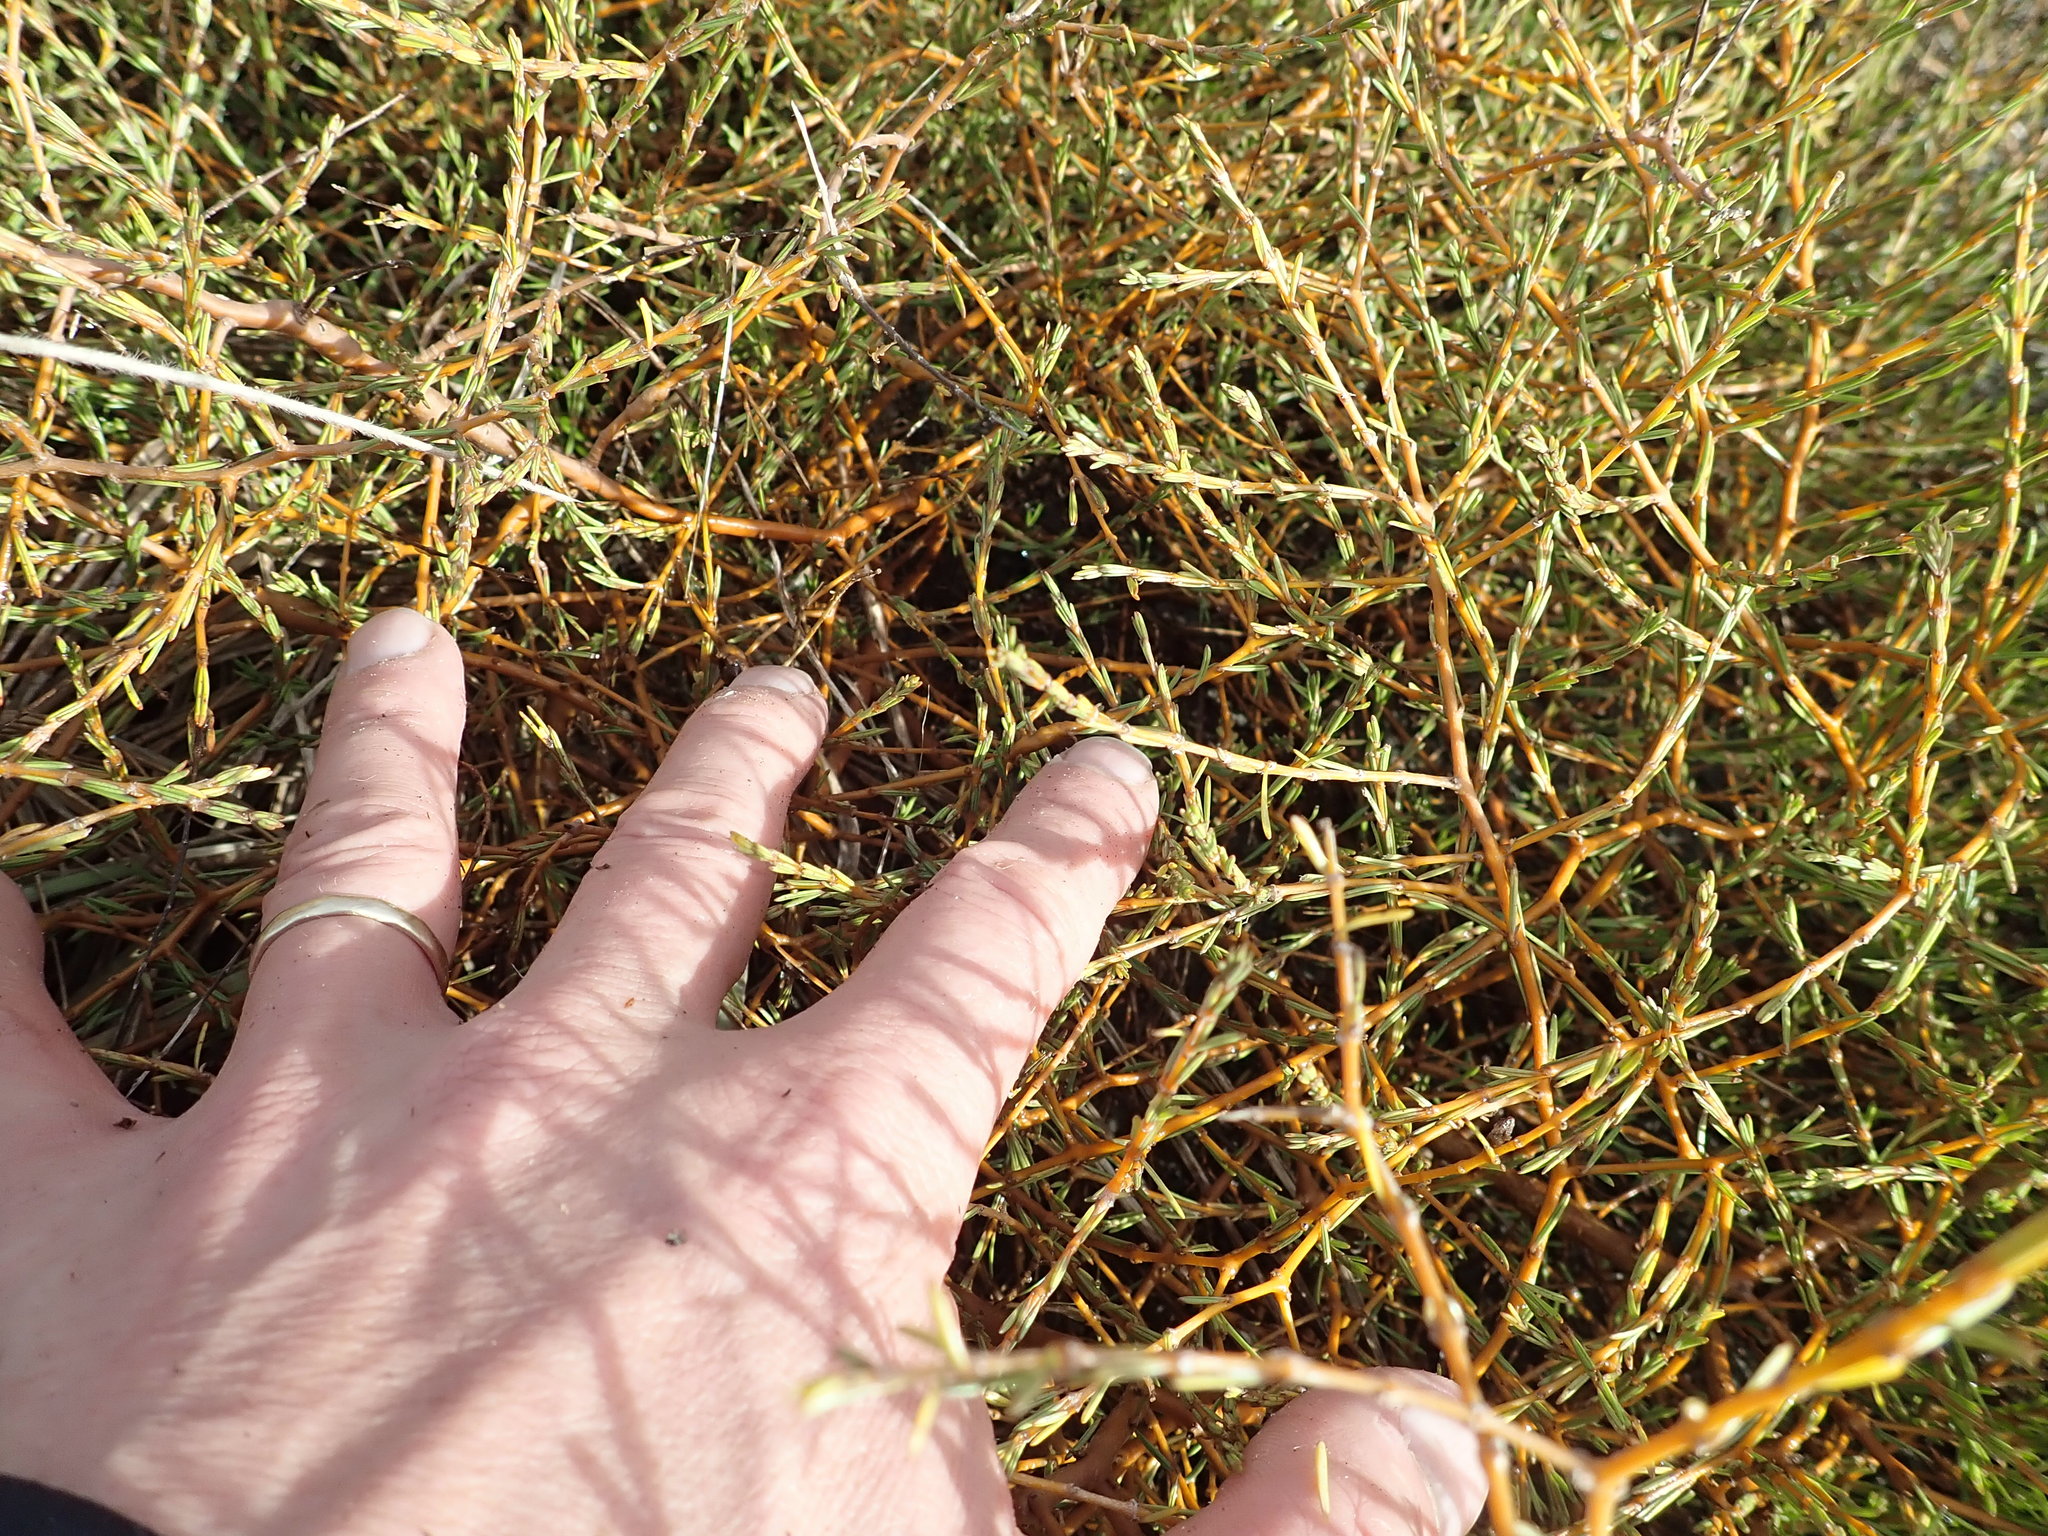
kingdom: Plantae
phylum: Tracheophyta
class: Magnoliopsida
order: Gentianales
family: Rubiaceae
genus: Coprosma
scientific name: Coprosma acerosa
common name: Sand coprosma
